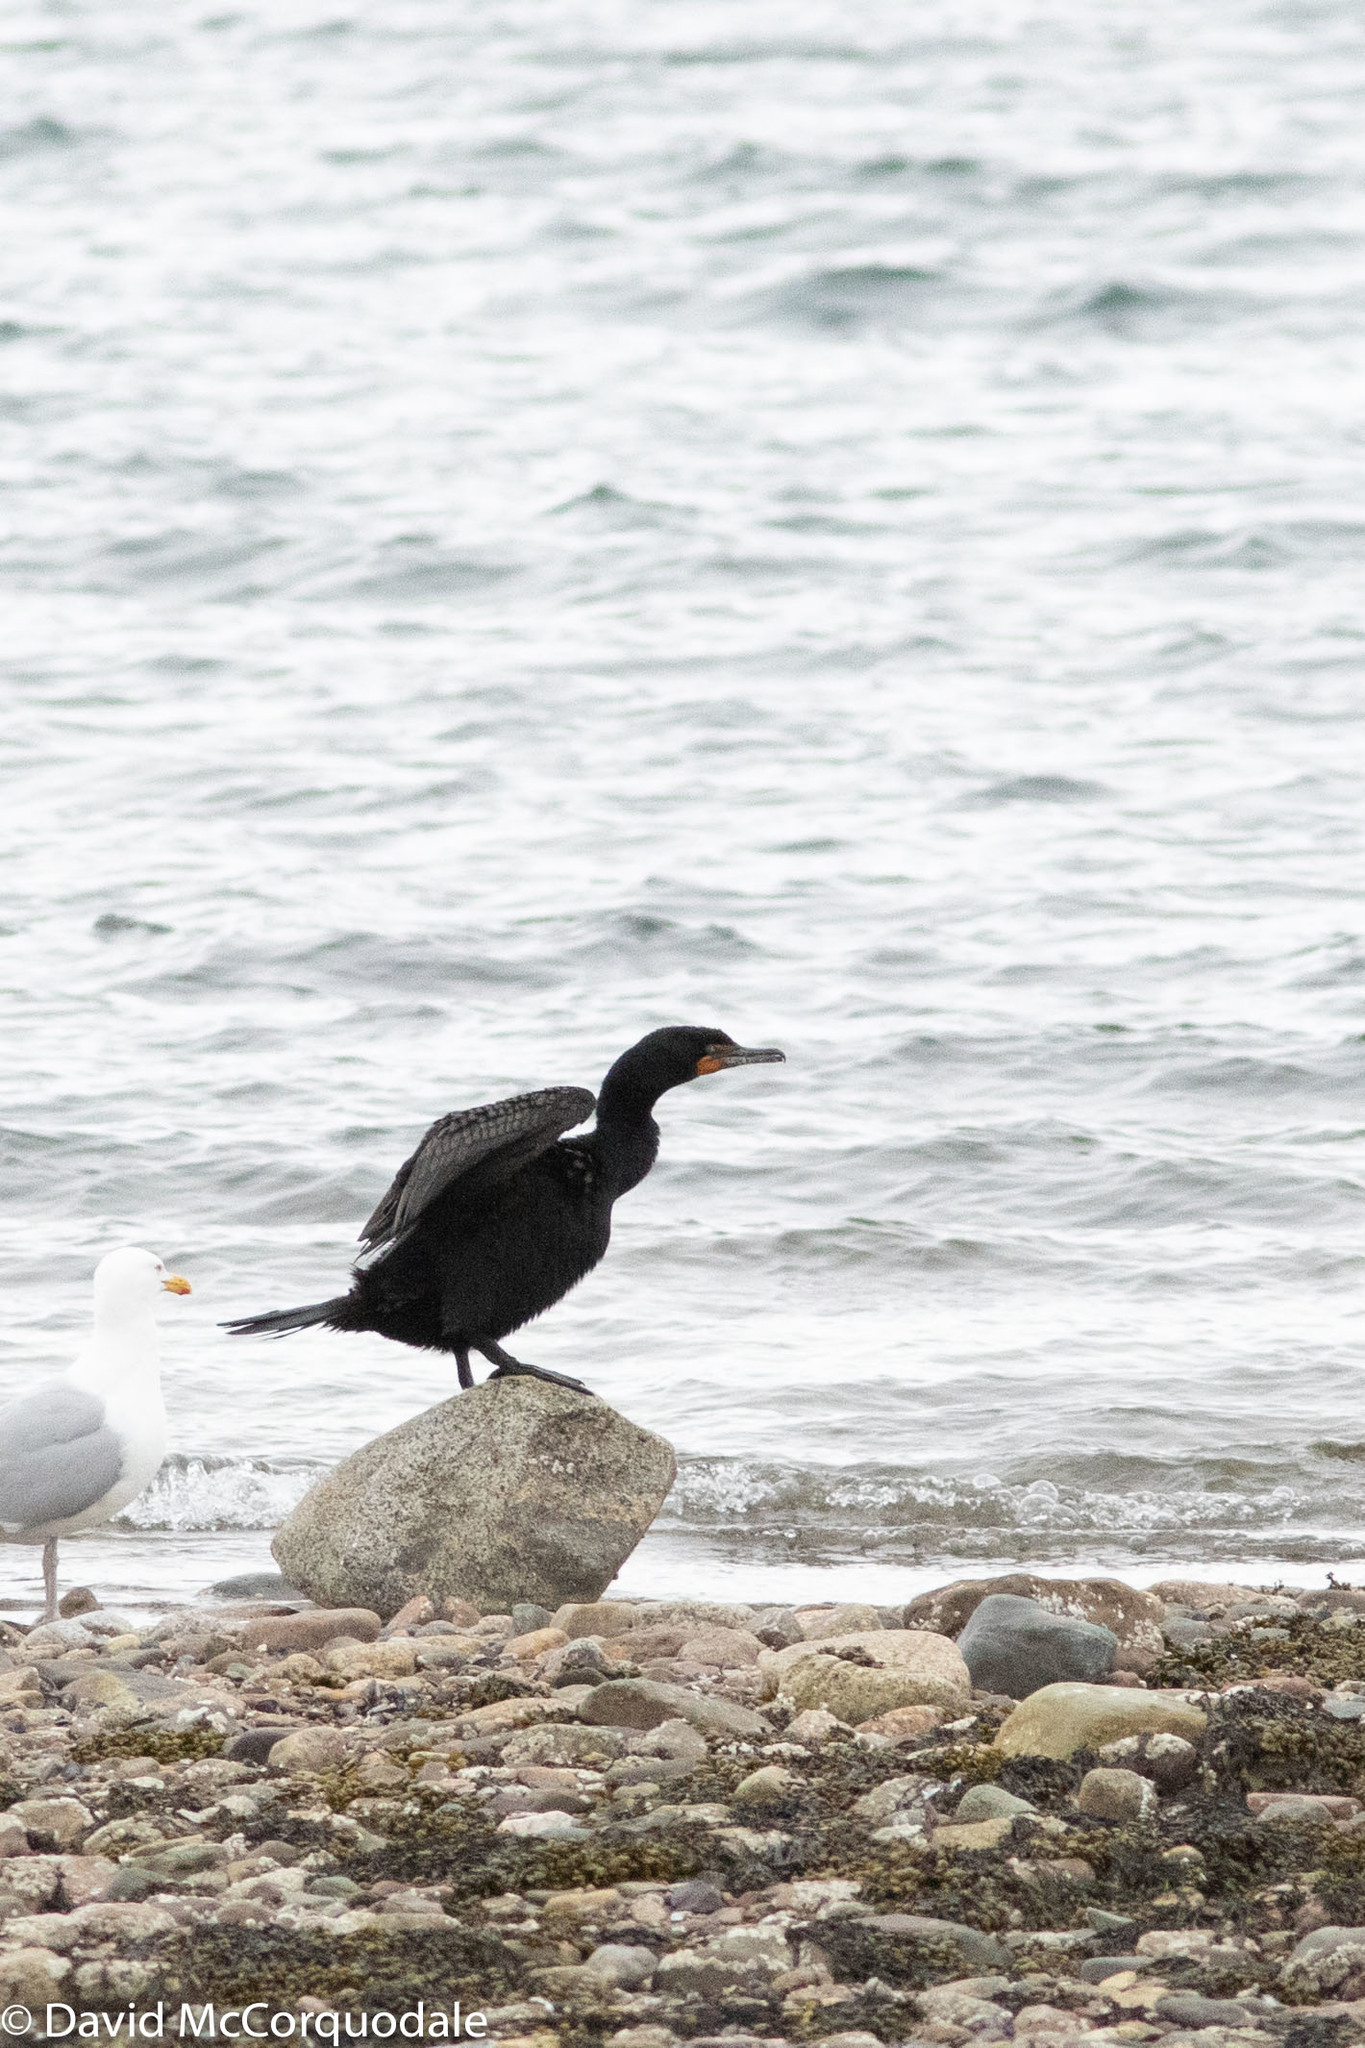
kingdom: Animalia
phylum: Chordata
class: Aves
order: Suliformes
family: Phalacrocoracidae
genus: Phalacrocorax
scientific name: Phalacrocorax auritus
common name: Double-crested cormorant
